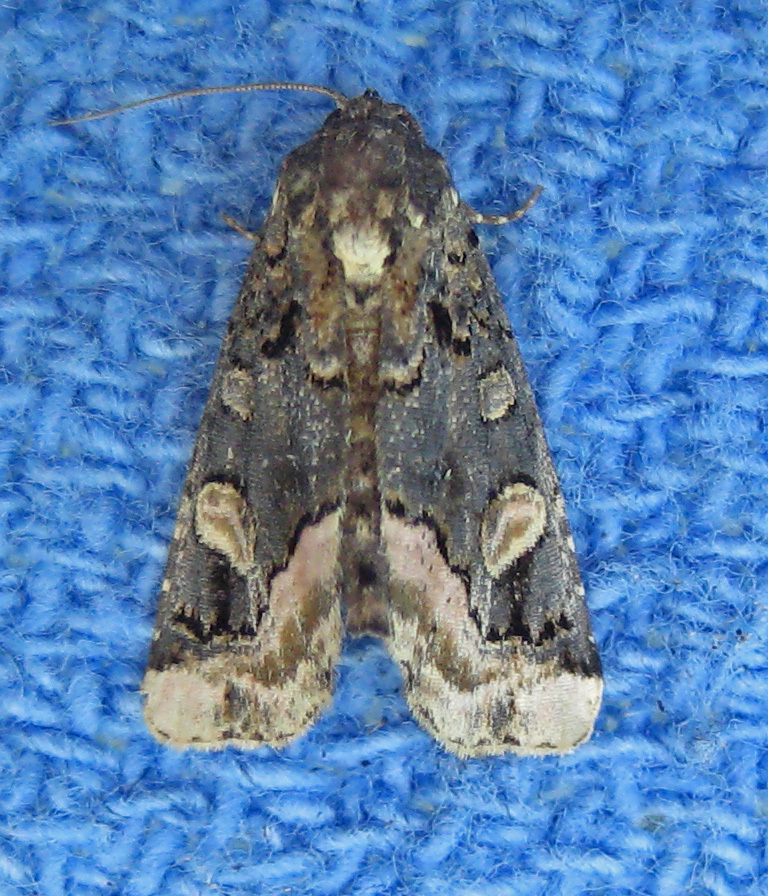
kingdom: Animalia
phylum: Arthropoda
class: Insecta
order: Lepidoptera
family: Noctuidae
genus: Homophoberia
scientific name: Homophoberia apicosa
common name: Black wedge-spot
